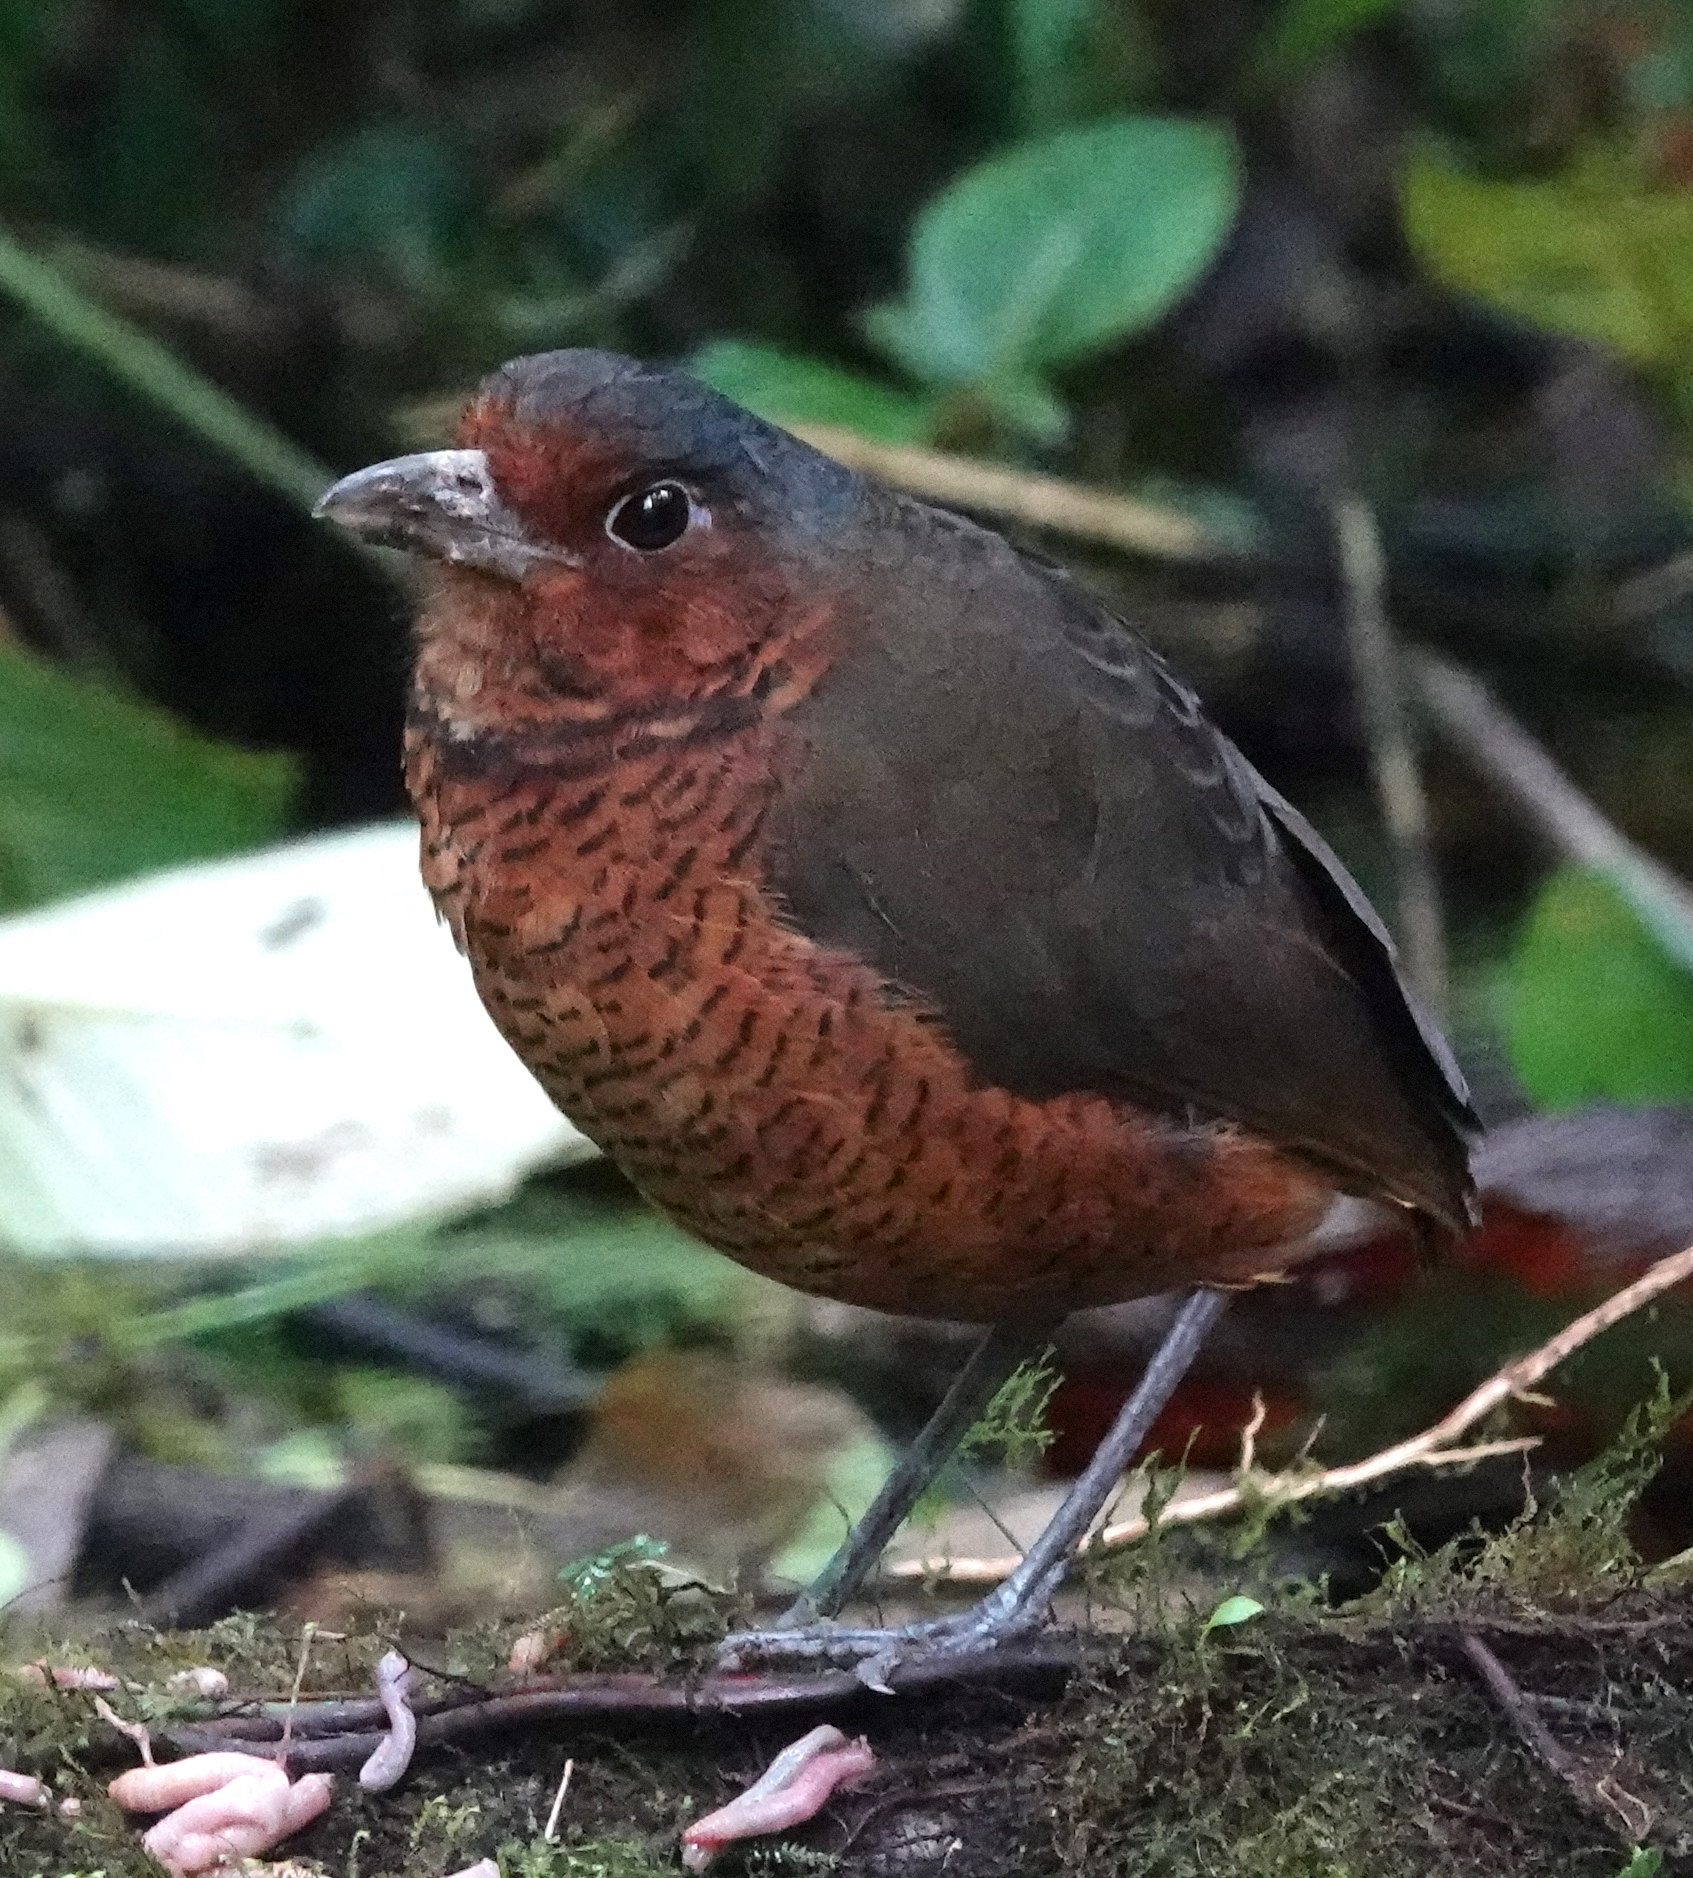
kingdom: Animalia
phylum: Chordata
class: Aves
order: Passeriformes
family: Grallariidae
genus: Grallaria
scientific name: Grallaria gigantea
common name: Giant antpitta
